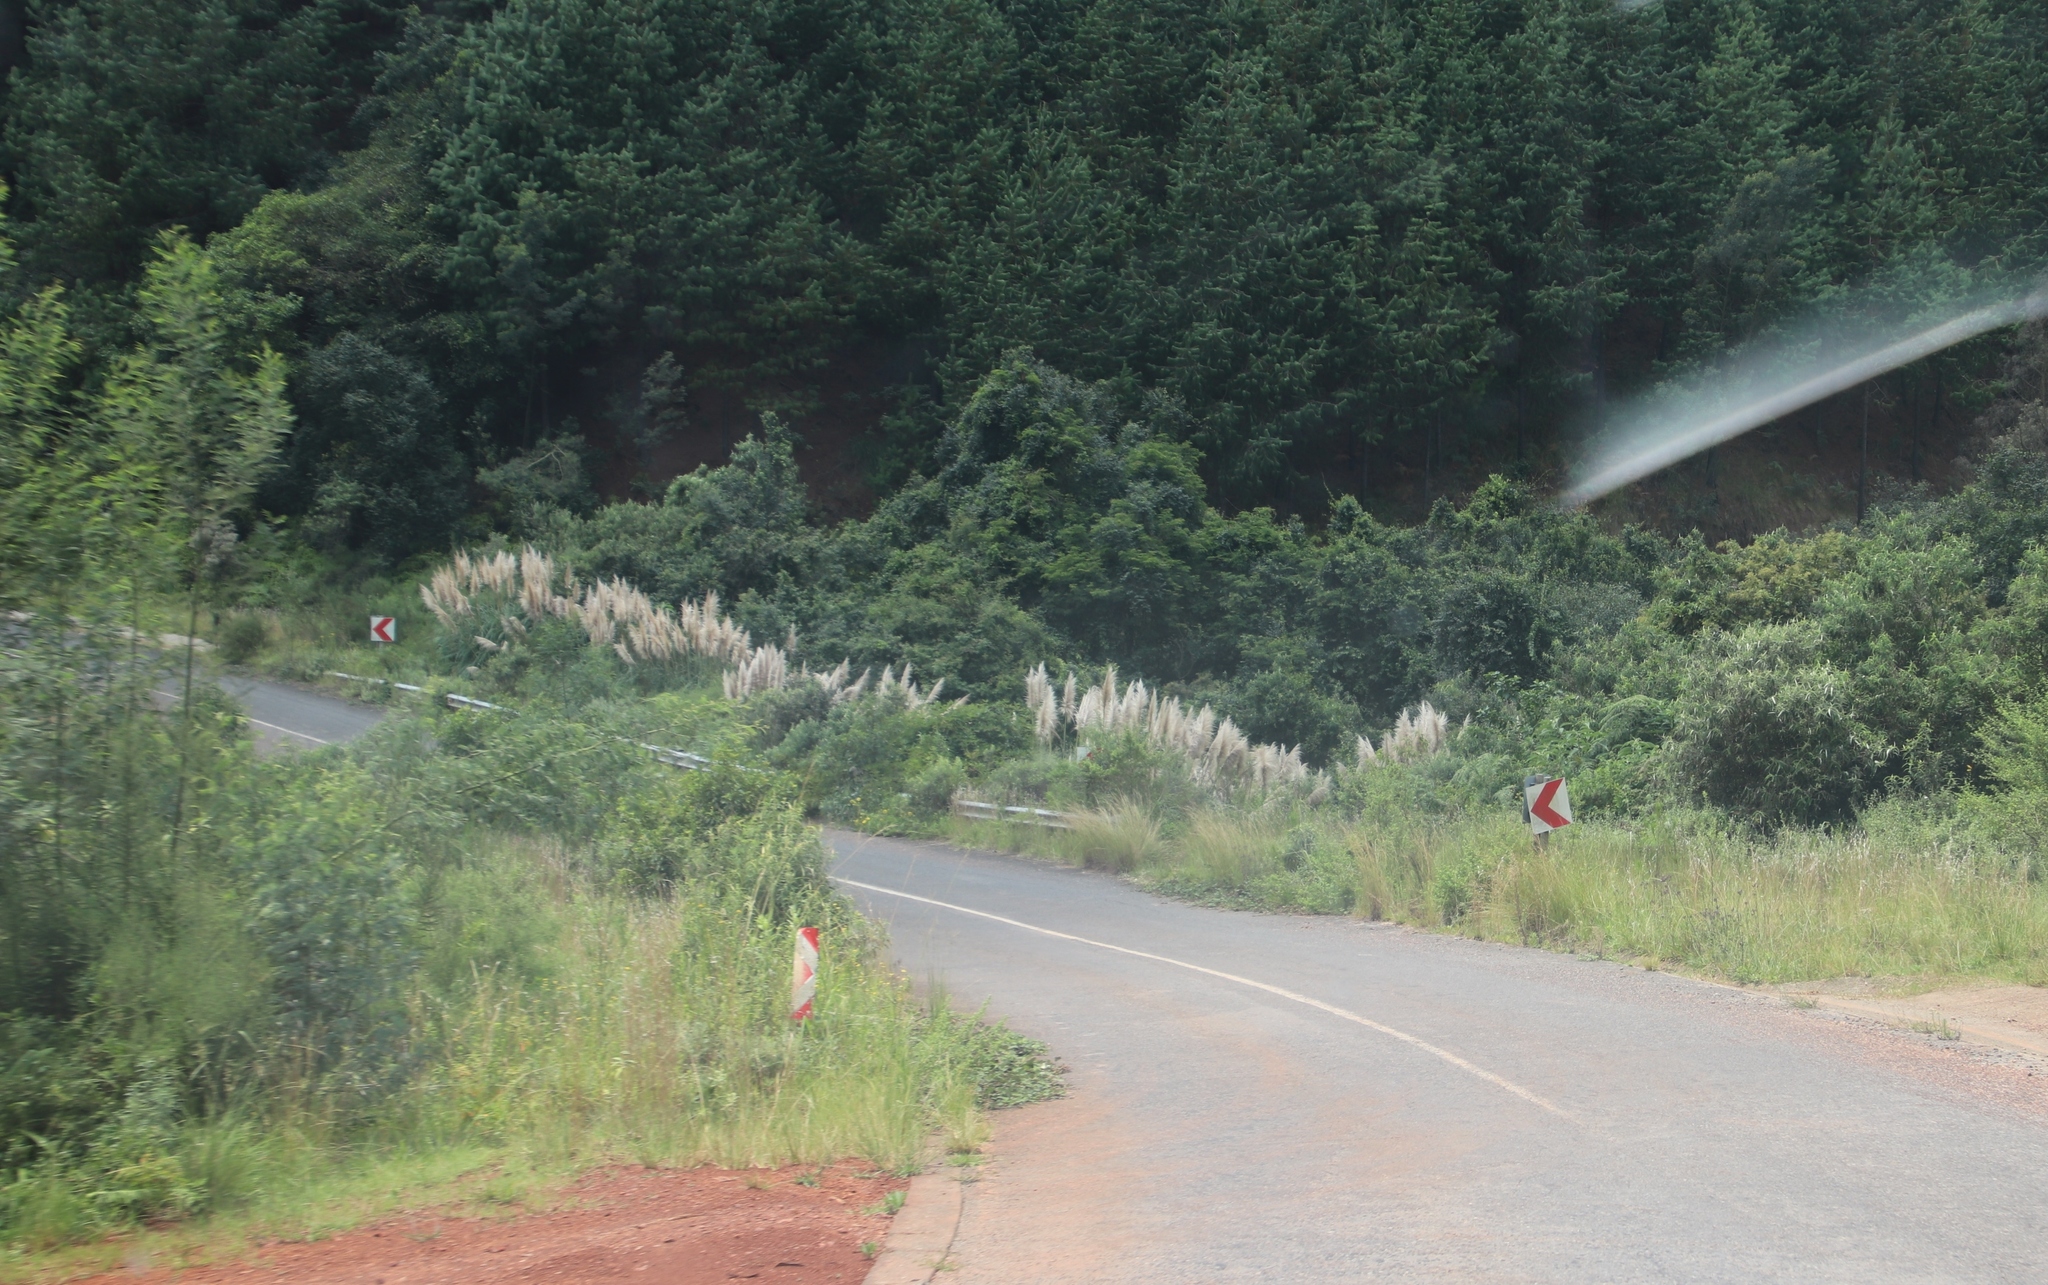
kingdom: Plantae
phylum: Tracheophyta
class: Liliopsida
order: Poales
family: Poaceae
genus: Cortaderia
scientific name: Cortaderia selloana
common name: Uruguayan pampas grass
